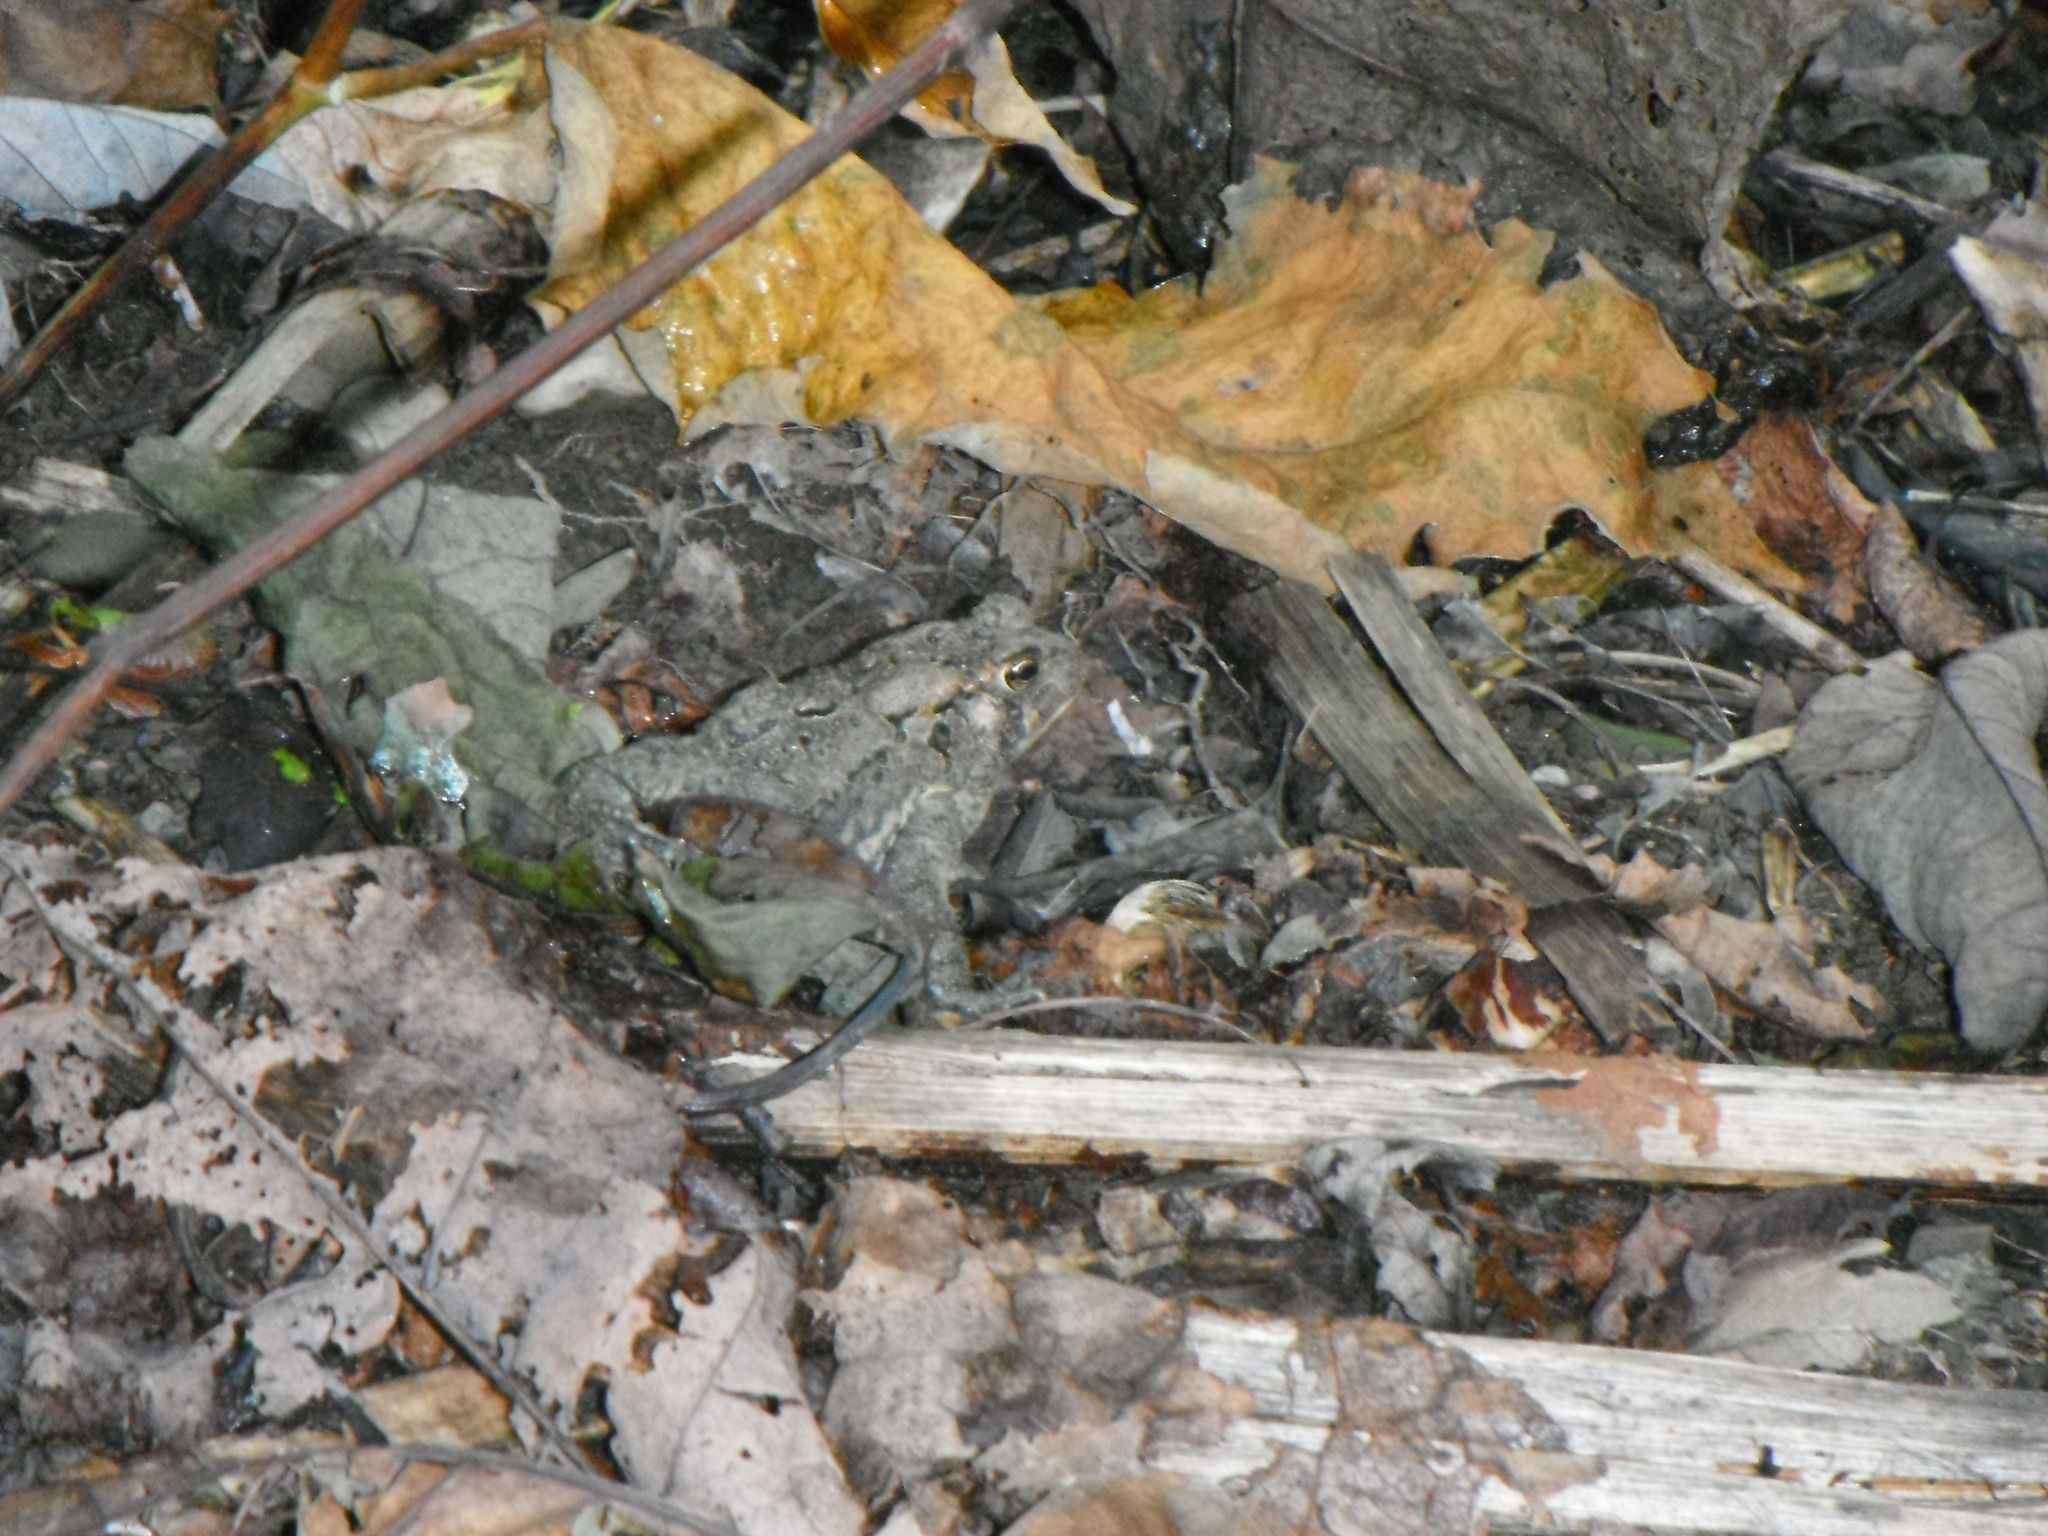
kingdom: Animalia
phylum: Chordata
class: Amphibia
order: Anura
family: Bufonidae
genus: Anaxyrus
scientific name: Anaxyrus americanus
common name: American toad
